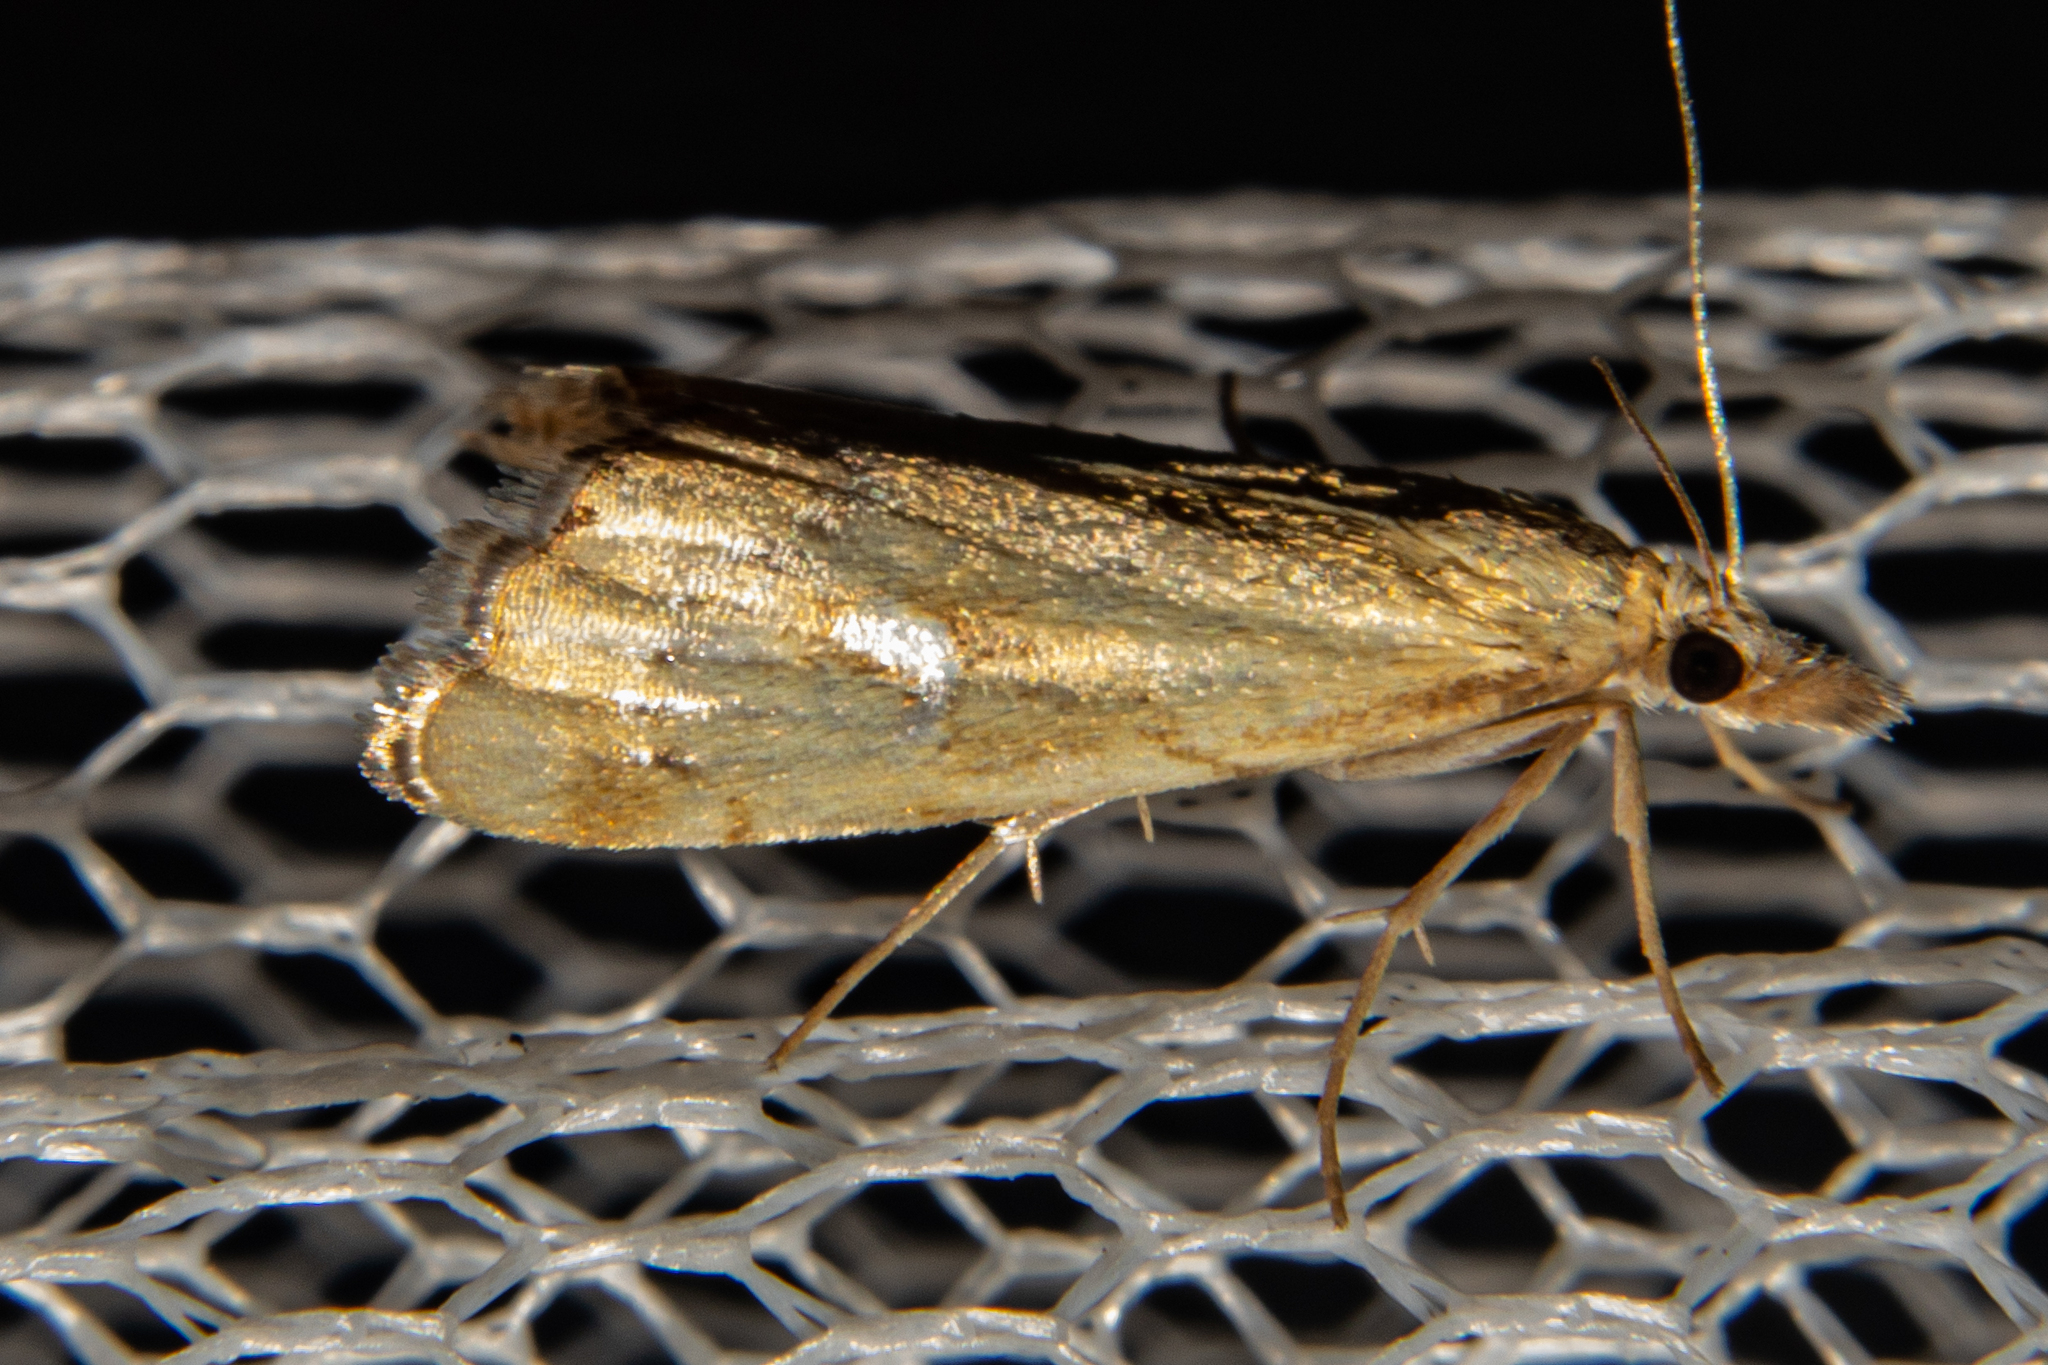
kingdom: Animalia
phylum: Arthropoda
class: Insecta
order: Lepidoptera
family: Crambidae
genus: Glaucocharis
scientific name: Glaucocharis lepidella
